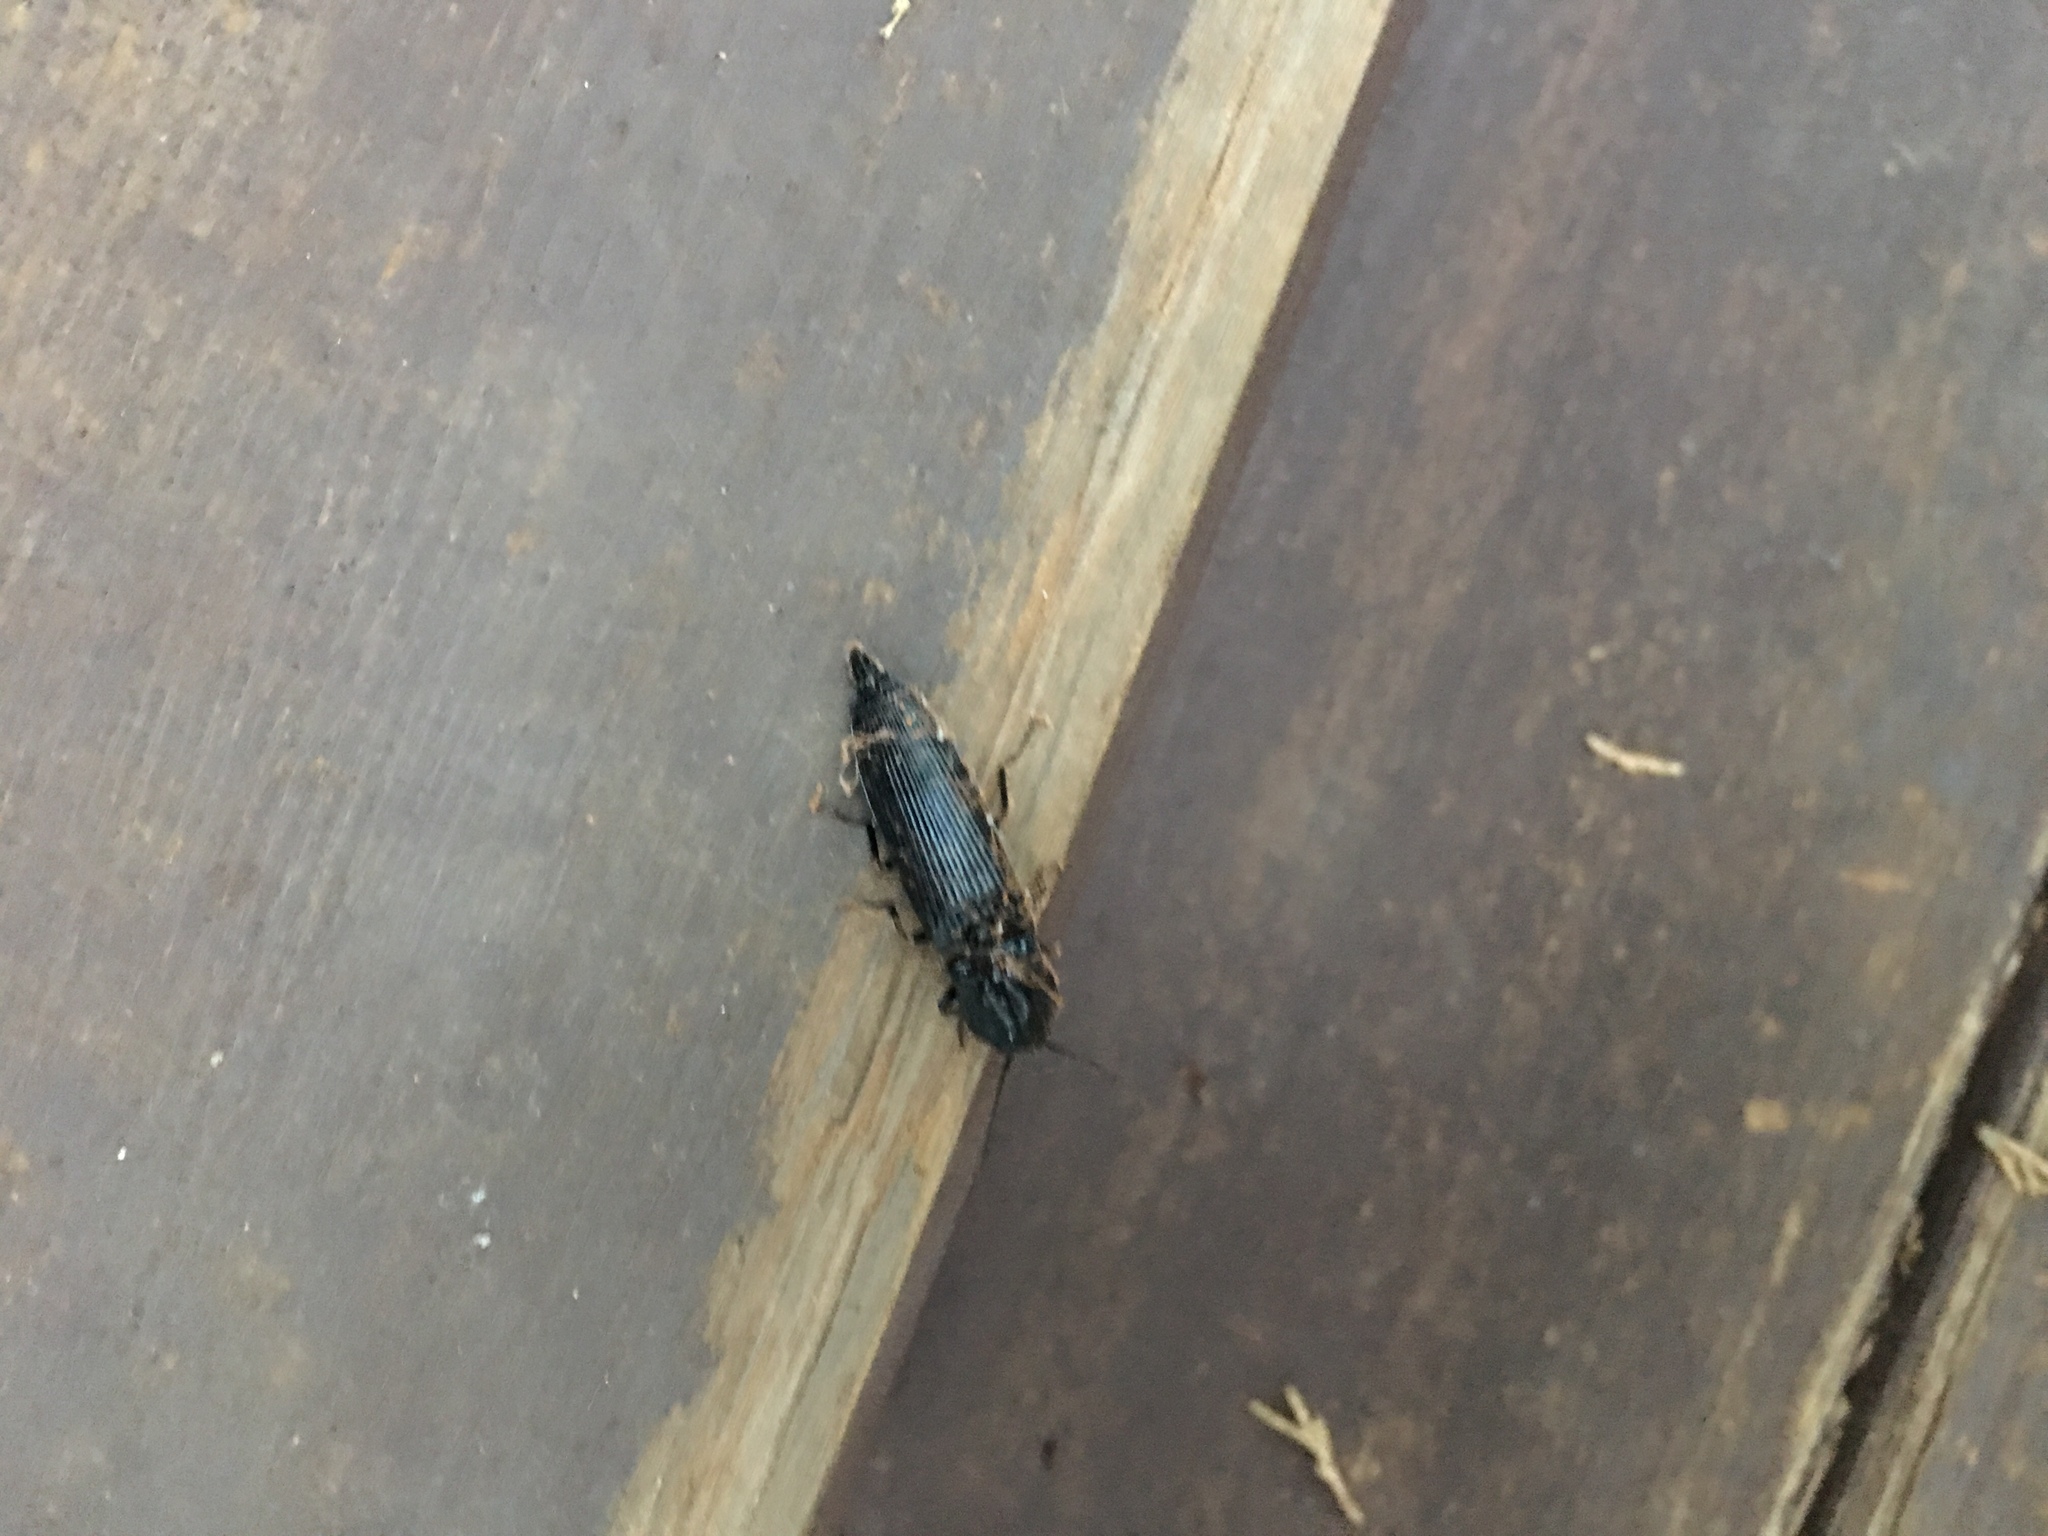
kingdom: Animalia
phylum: Arthropoda
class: Insecta
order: Coleoptera
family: Elateridae
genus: Pityobius
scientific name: Pityobius
